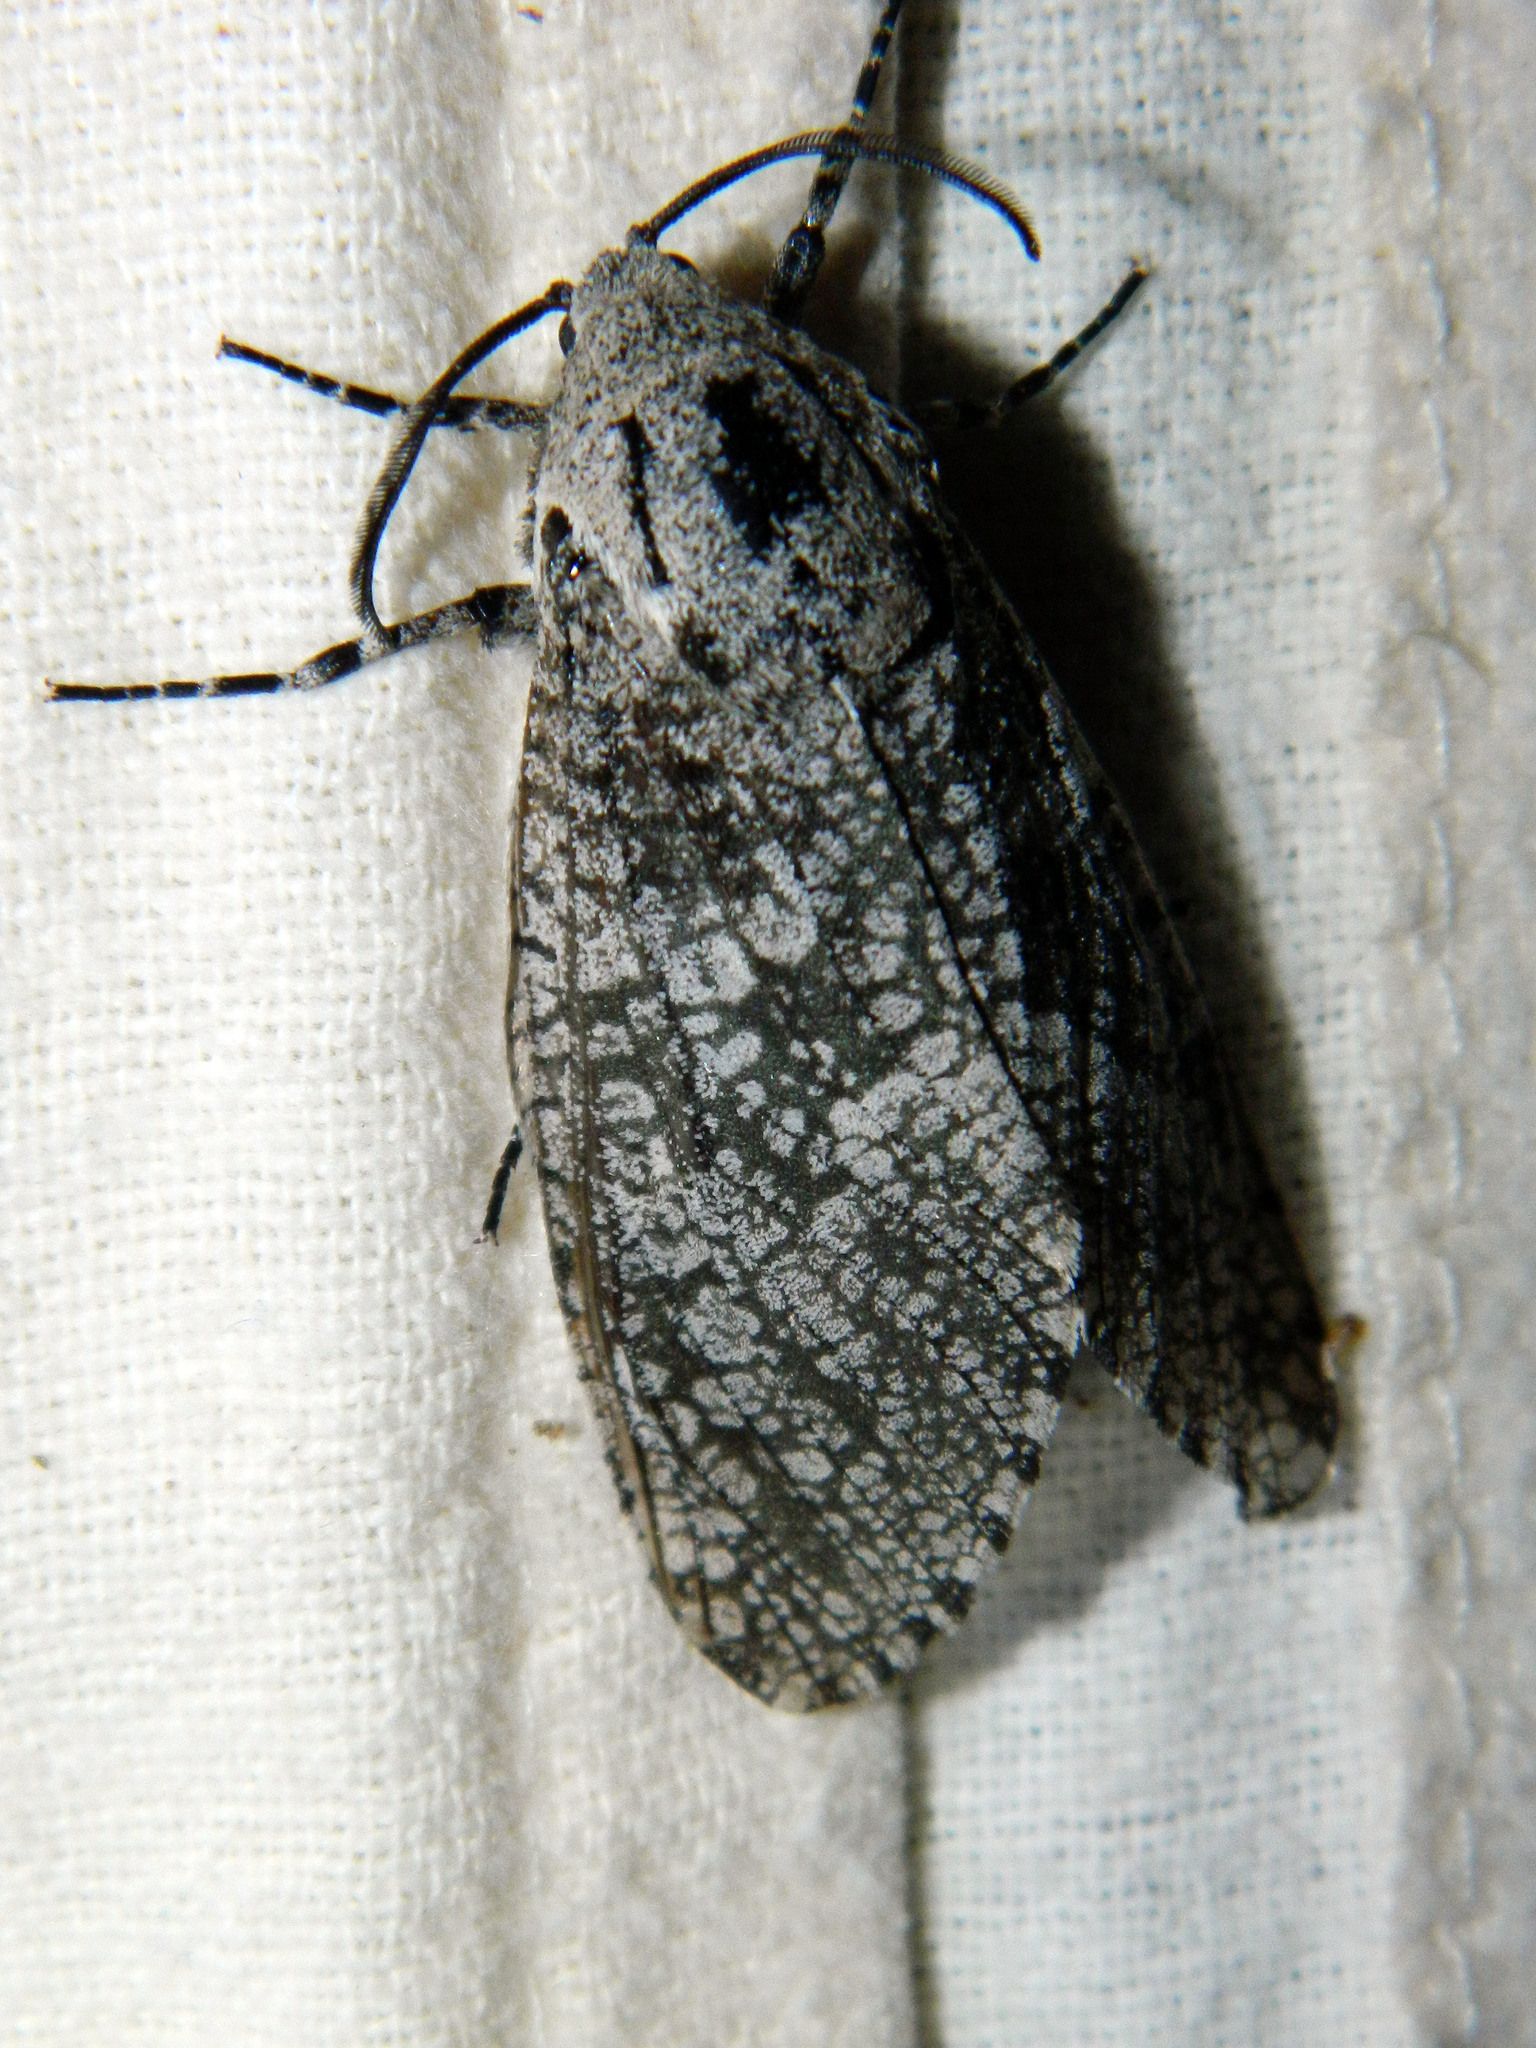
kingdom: Animalia
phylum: Arthropoda
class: Insecta
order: Lepidoptera
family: Cossidae
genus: Prionoxystus
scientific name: Prionoxystus robiniae
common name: Carpenterworm
